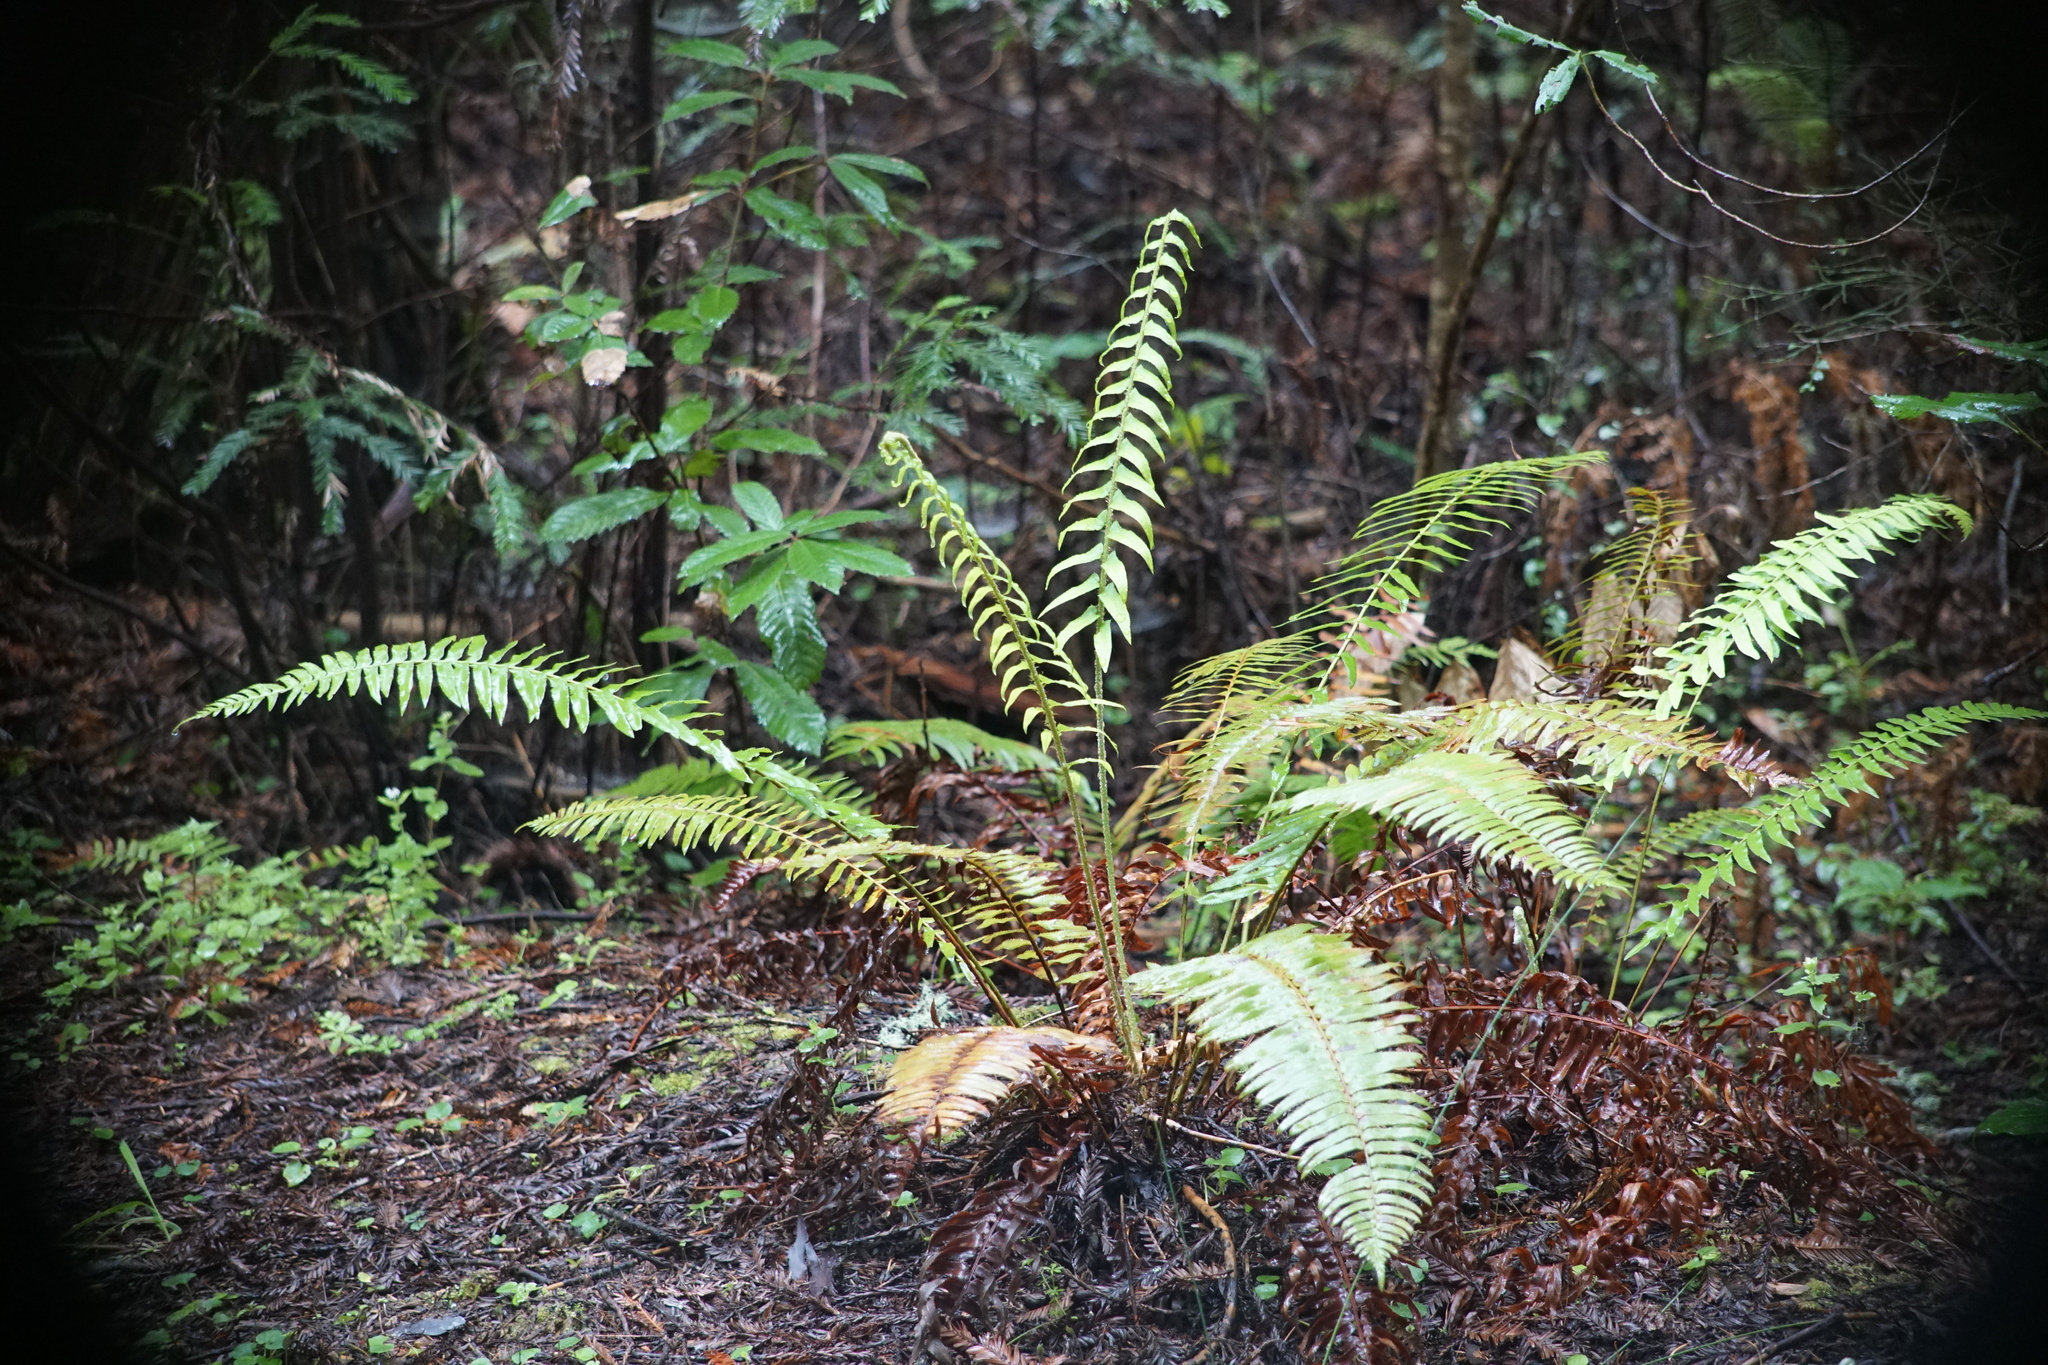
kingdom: Plantae
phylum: Tracheophyta
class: Polypodiopsida
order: Polypodiales
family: Dryopteridaceae
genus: Polystichum
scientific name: Polystichum munitum
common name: Western sword-fern
